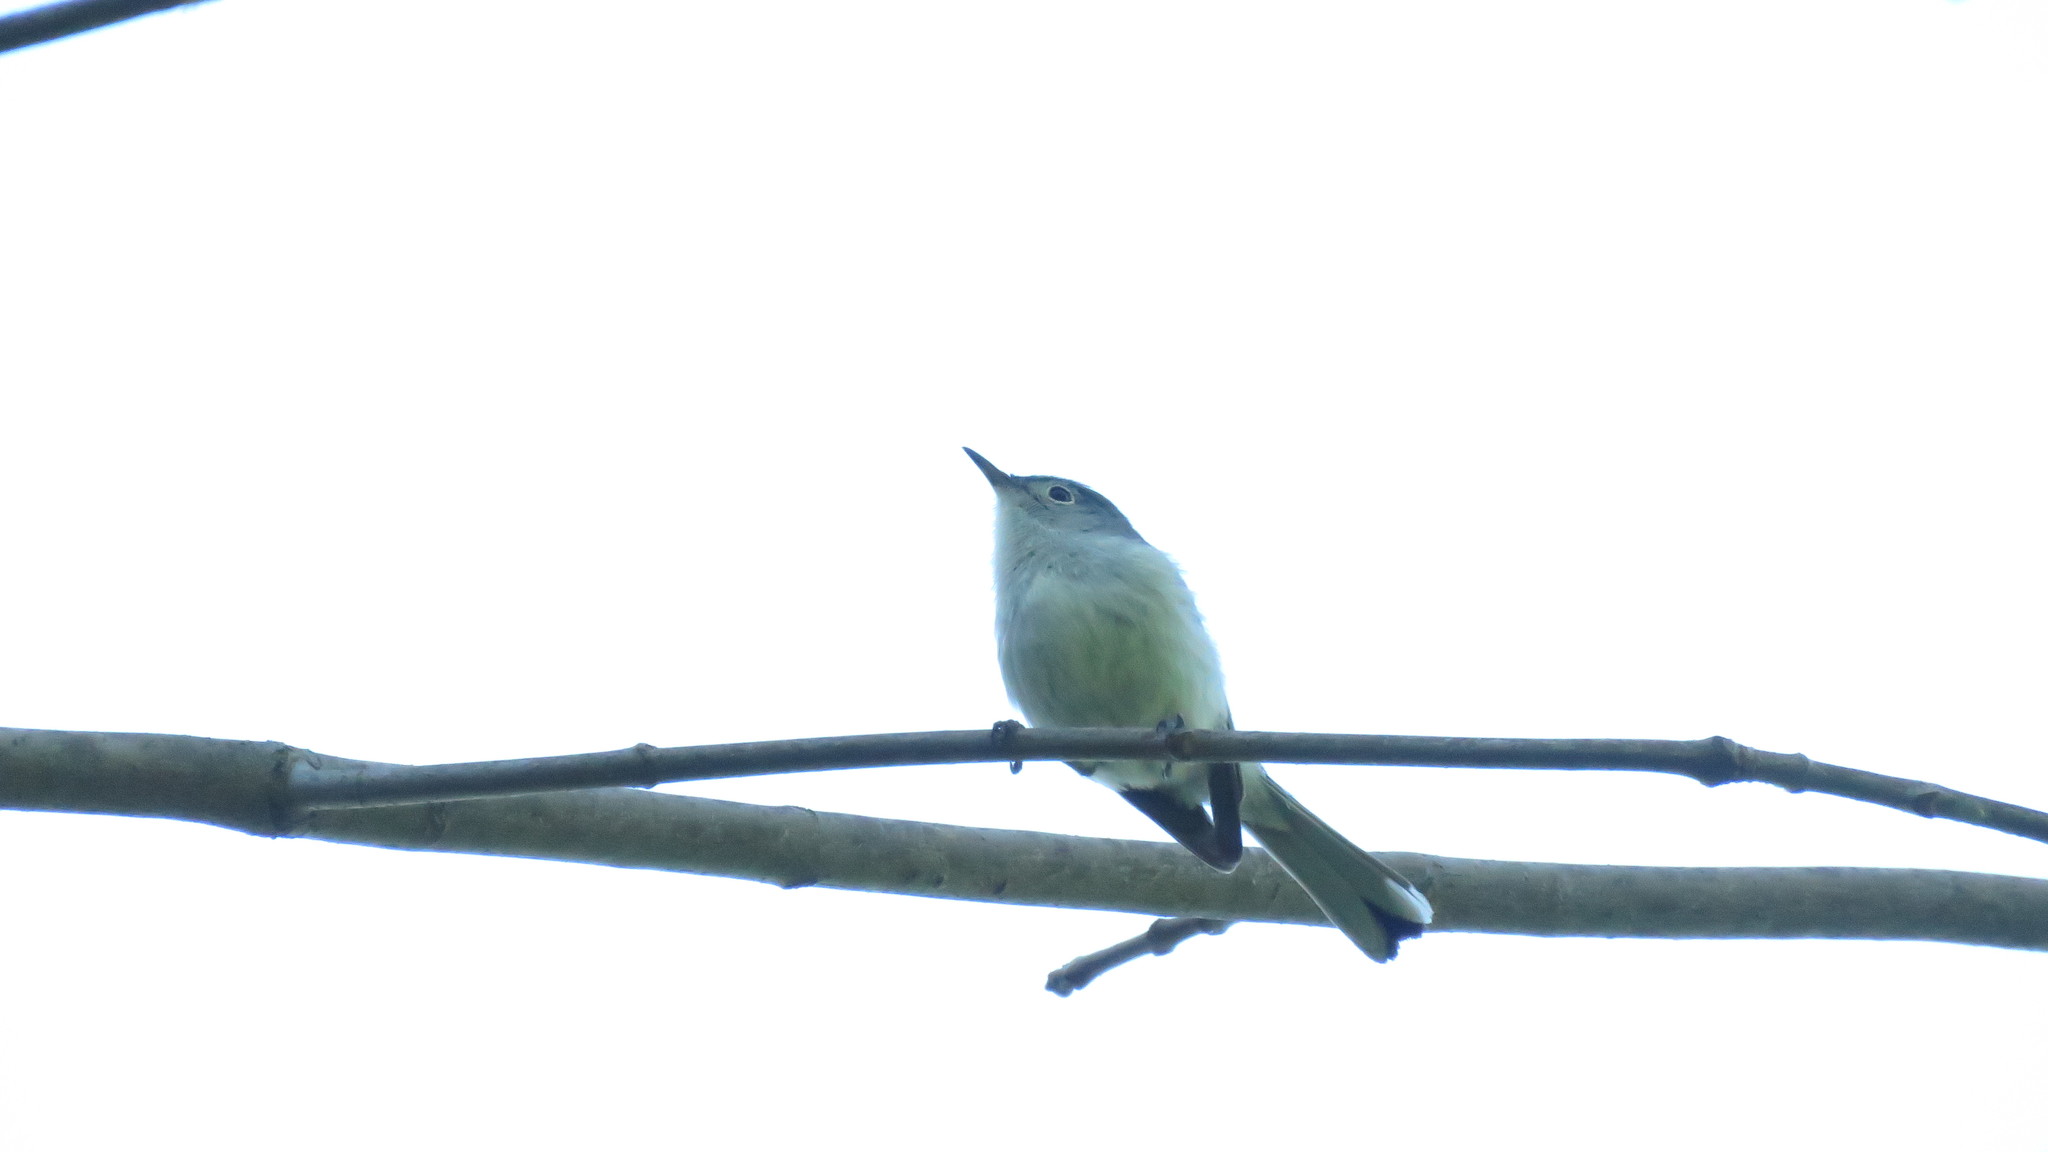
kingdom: Animalia
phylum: Chordata
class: Aves
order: Passeriformes
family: Polioptilidae
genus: Polioptila
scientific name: Polioptila caerulea
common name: Blue-gray gnatcatcher
